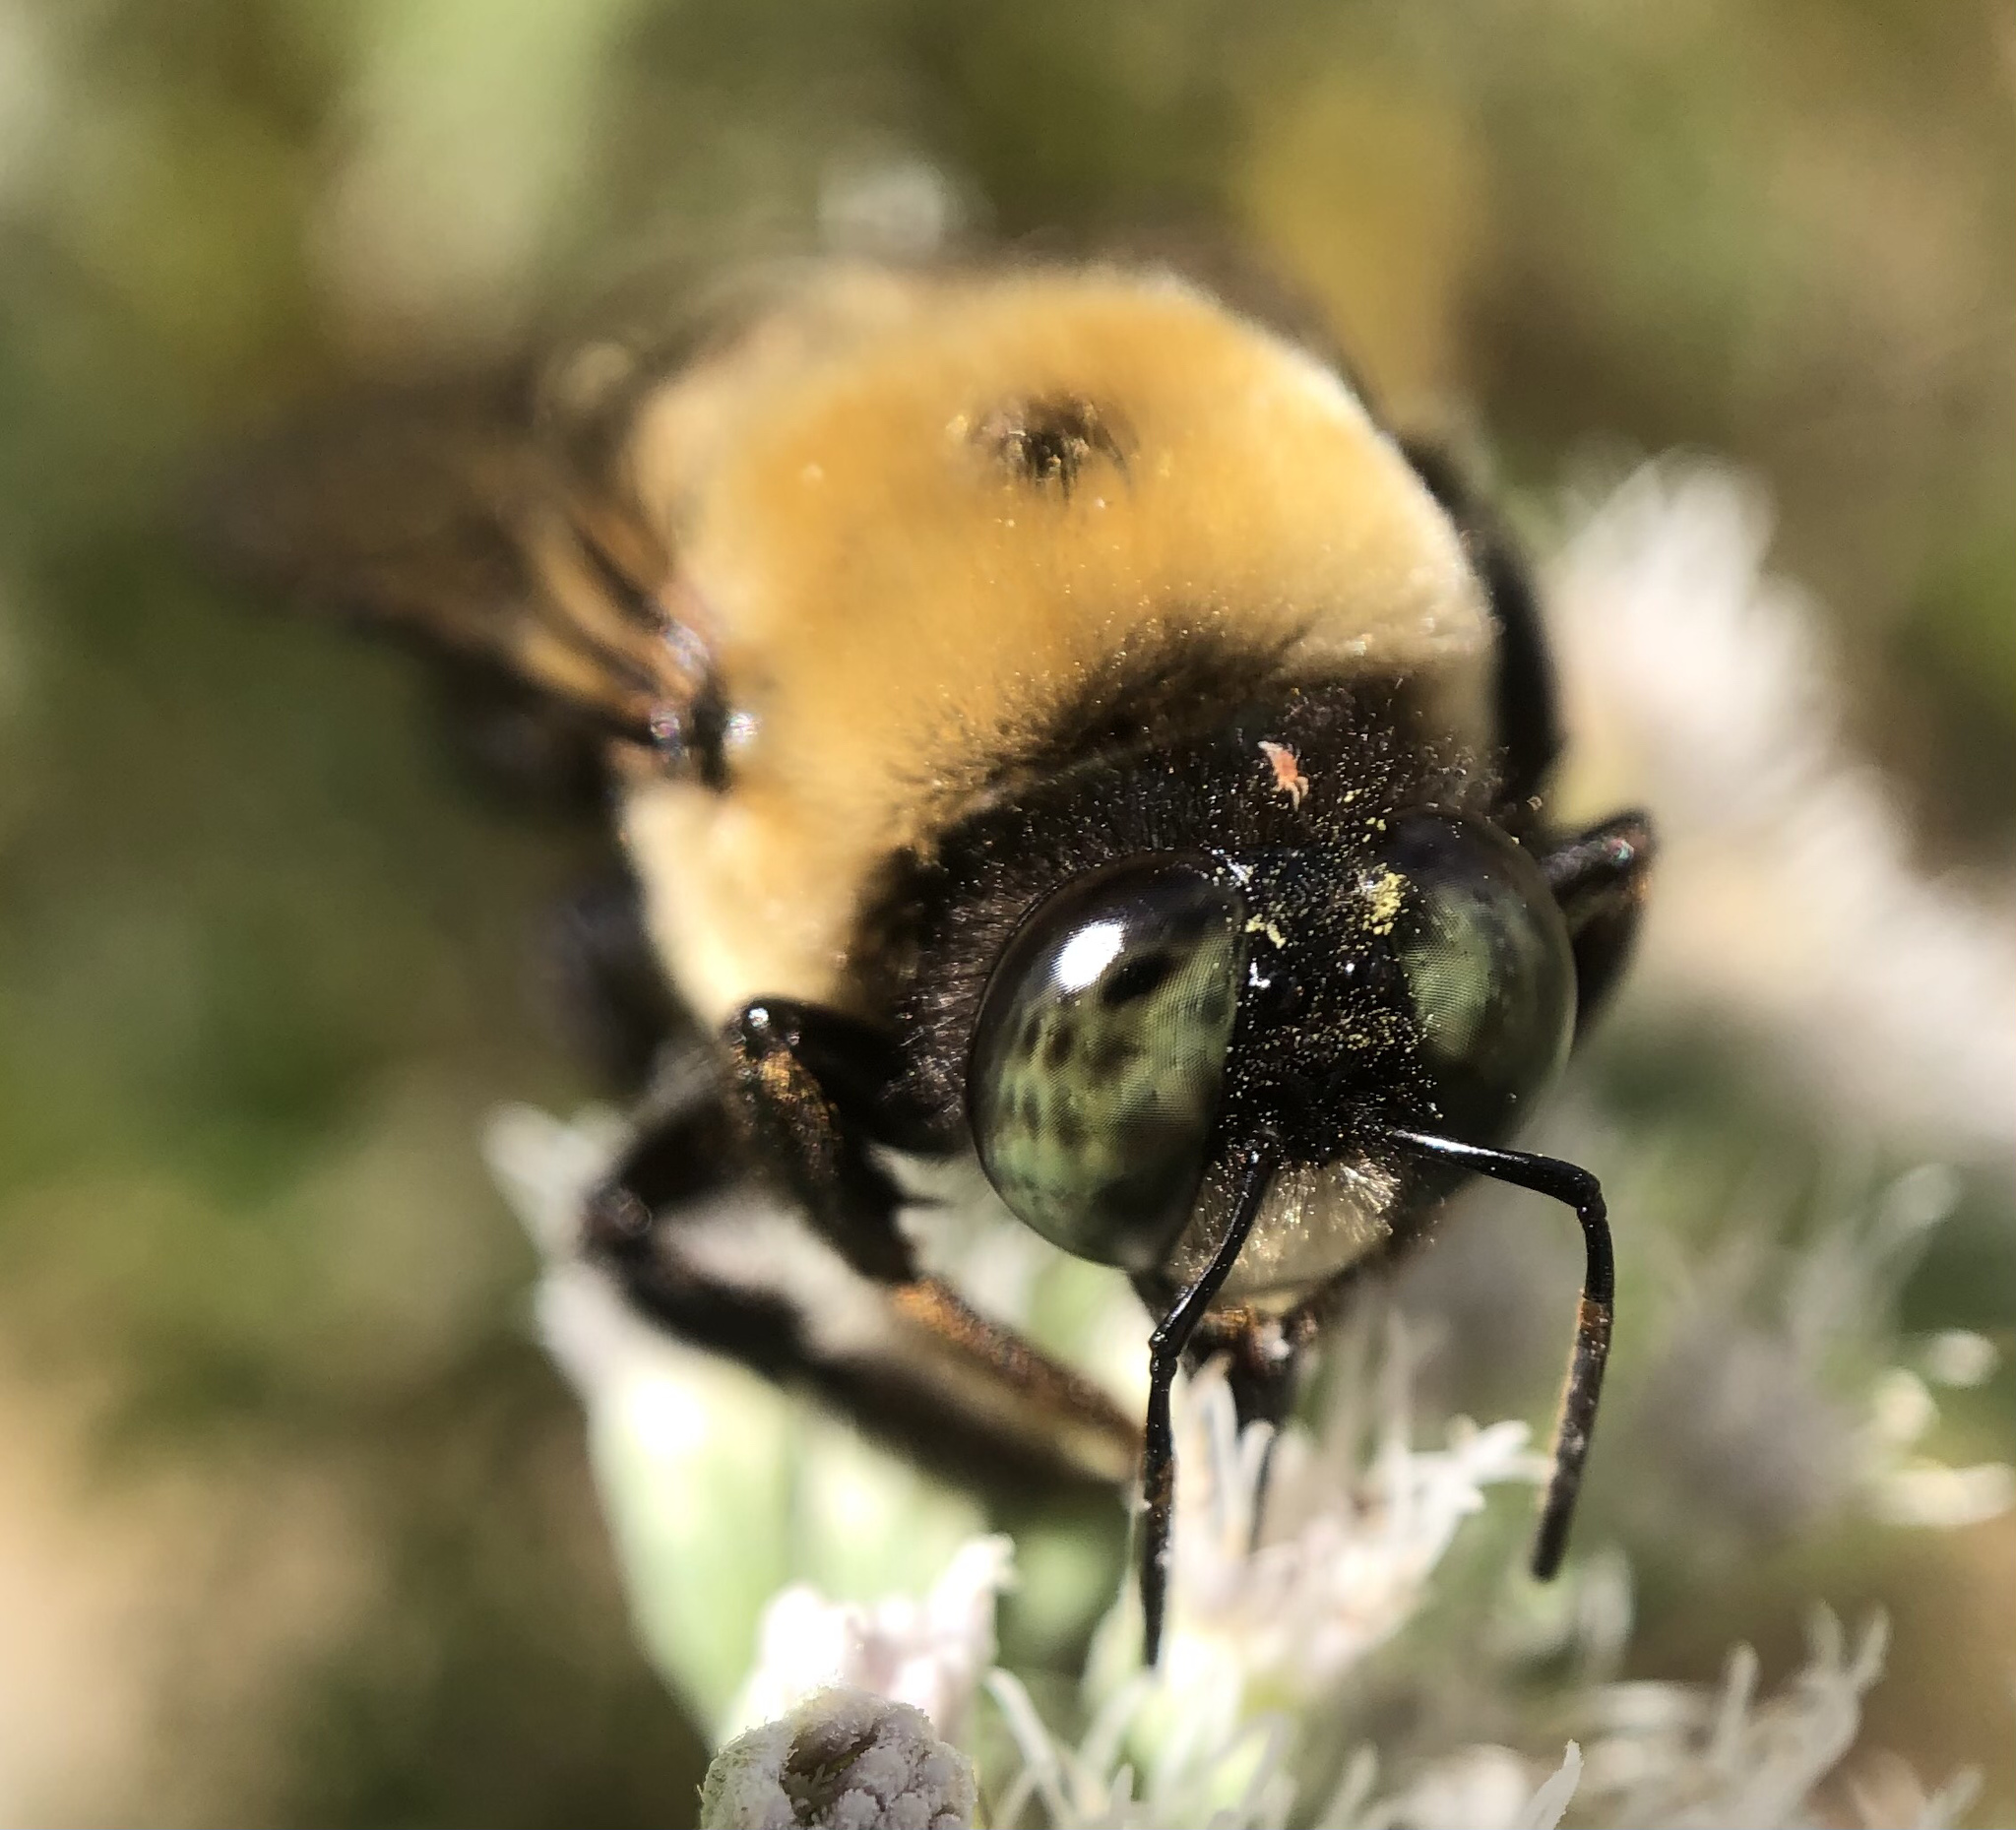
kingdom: Animalia
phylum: Arthropoda
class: Insecta
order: Hymenoptera
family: Apidae
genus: Xylocopa
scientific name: Xylocopa virginica
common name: Carpenter bee
